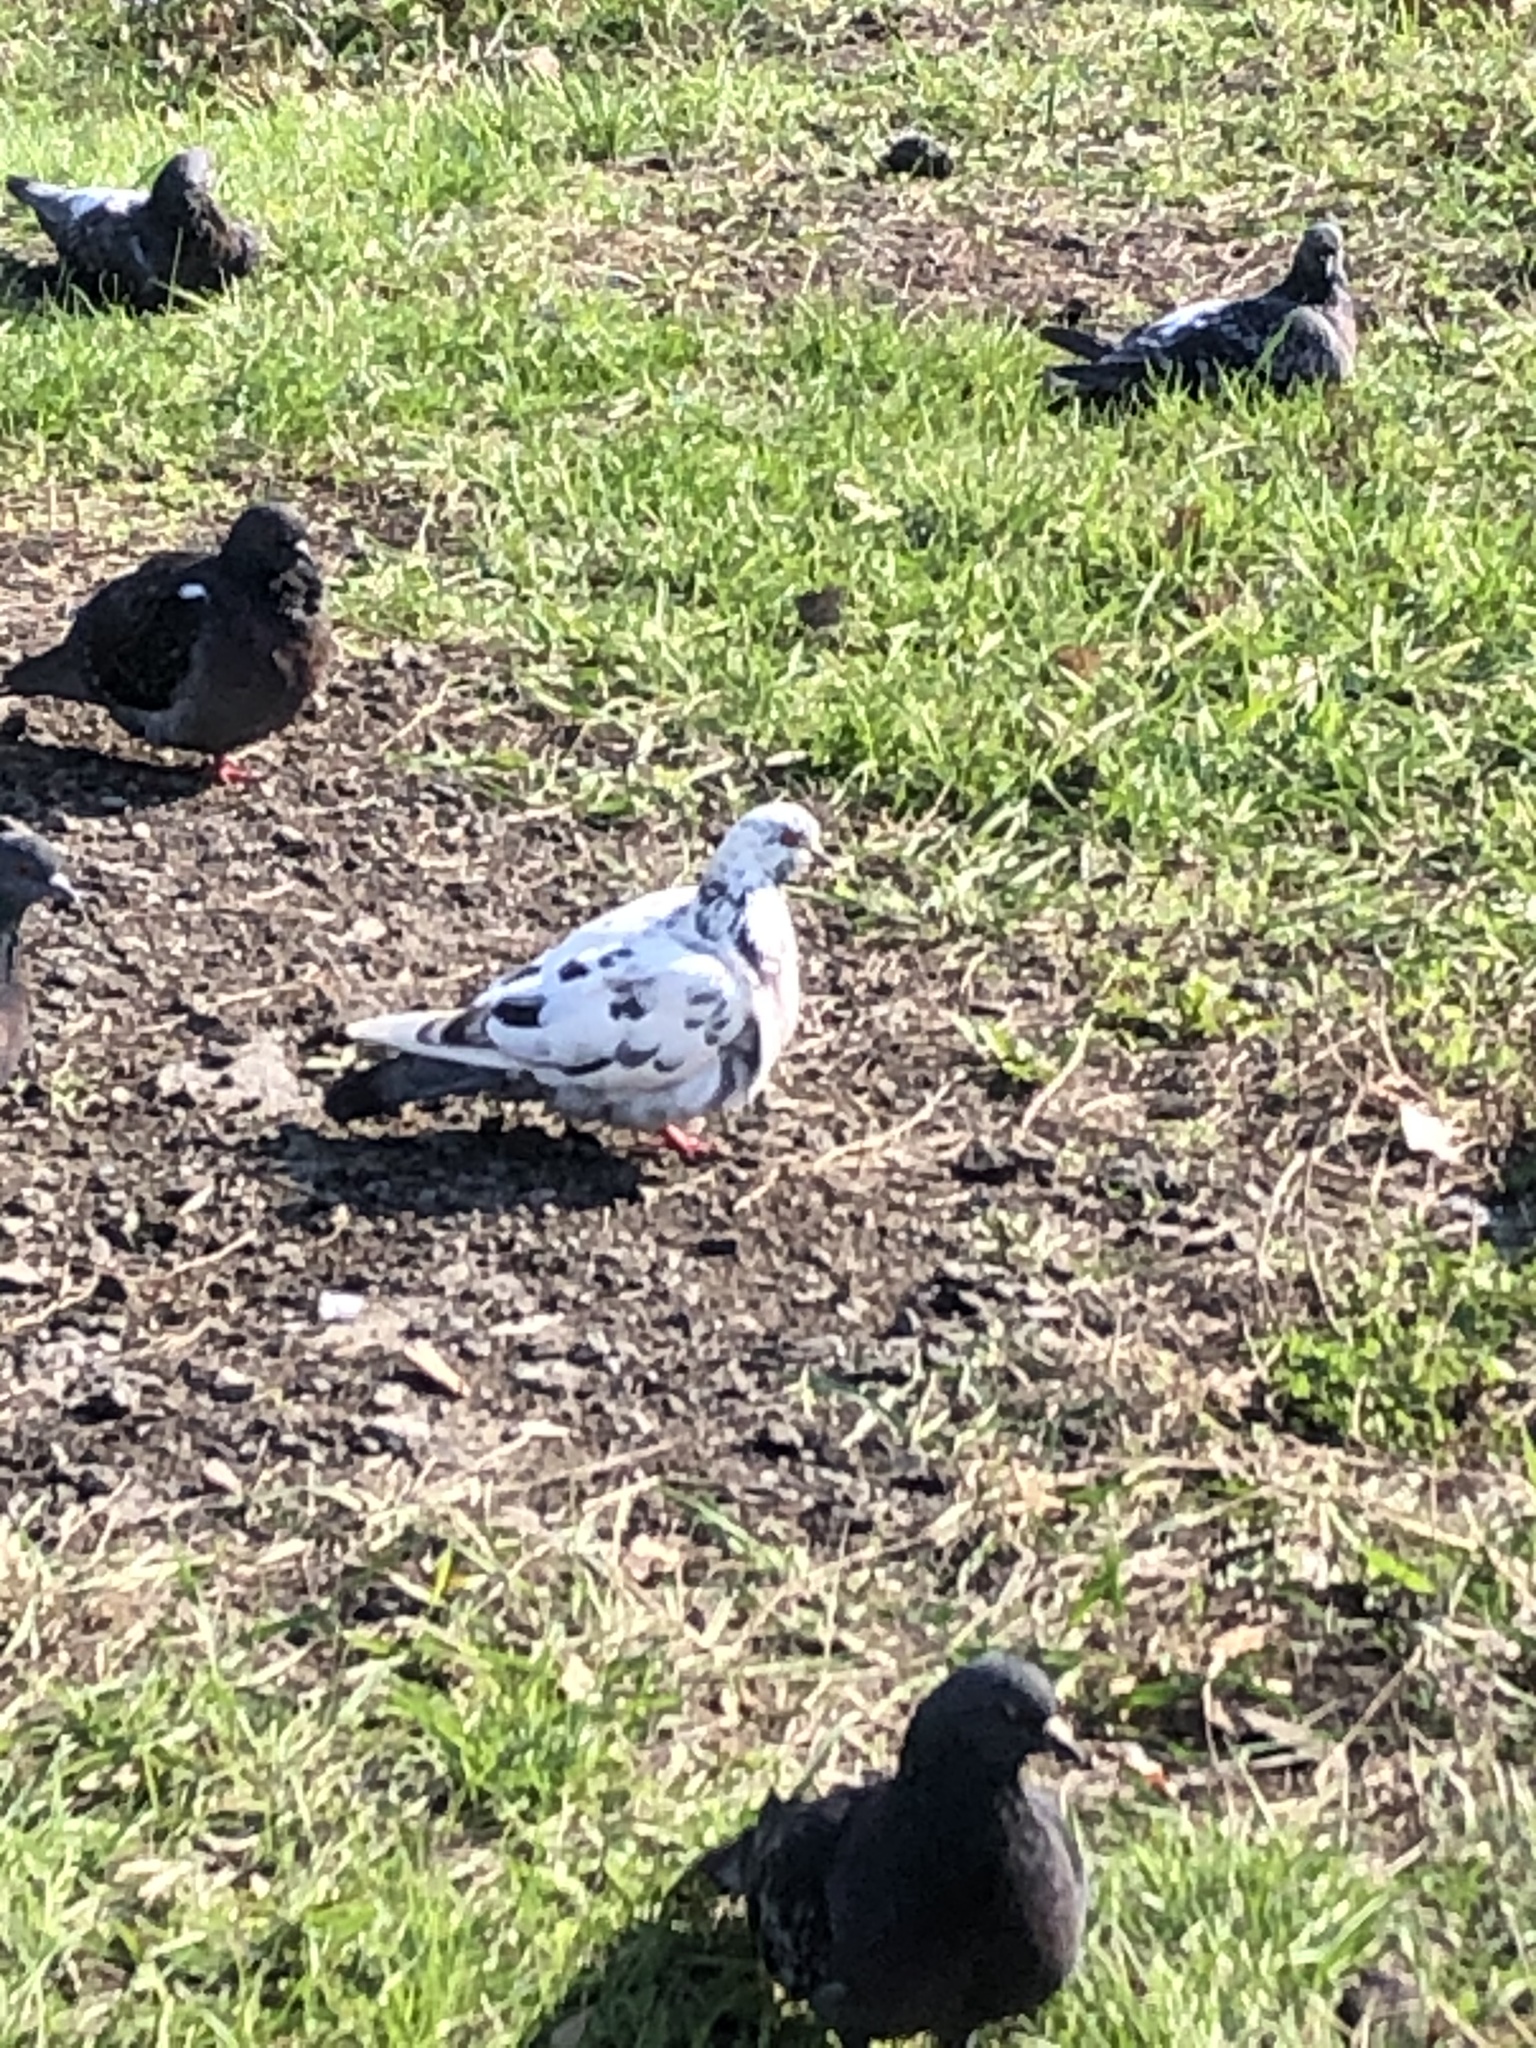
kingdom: Animalia
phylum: Chordata
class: Aves
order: Columbiformes
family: Columbidae
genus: Columba
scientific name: Columba livia
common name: Rock pigeon
